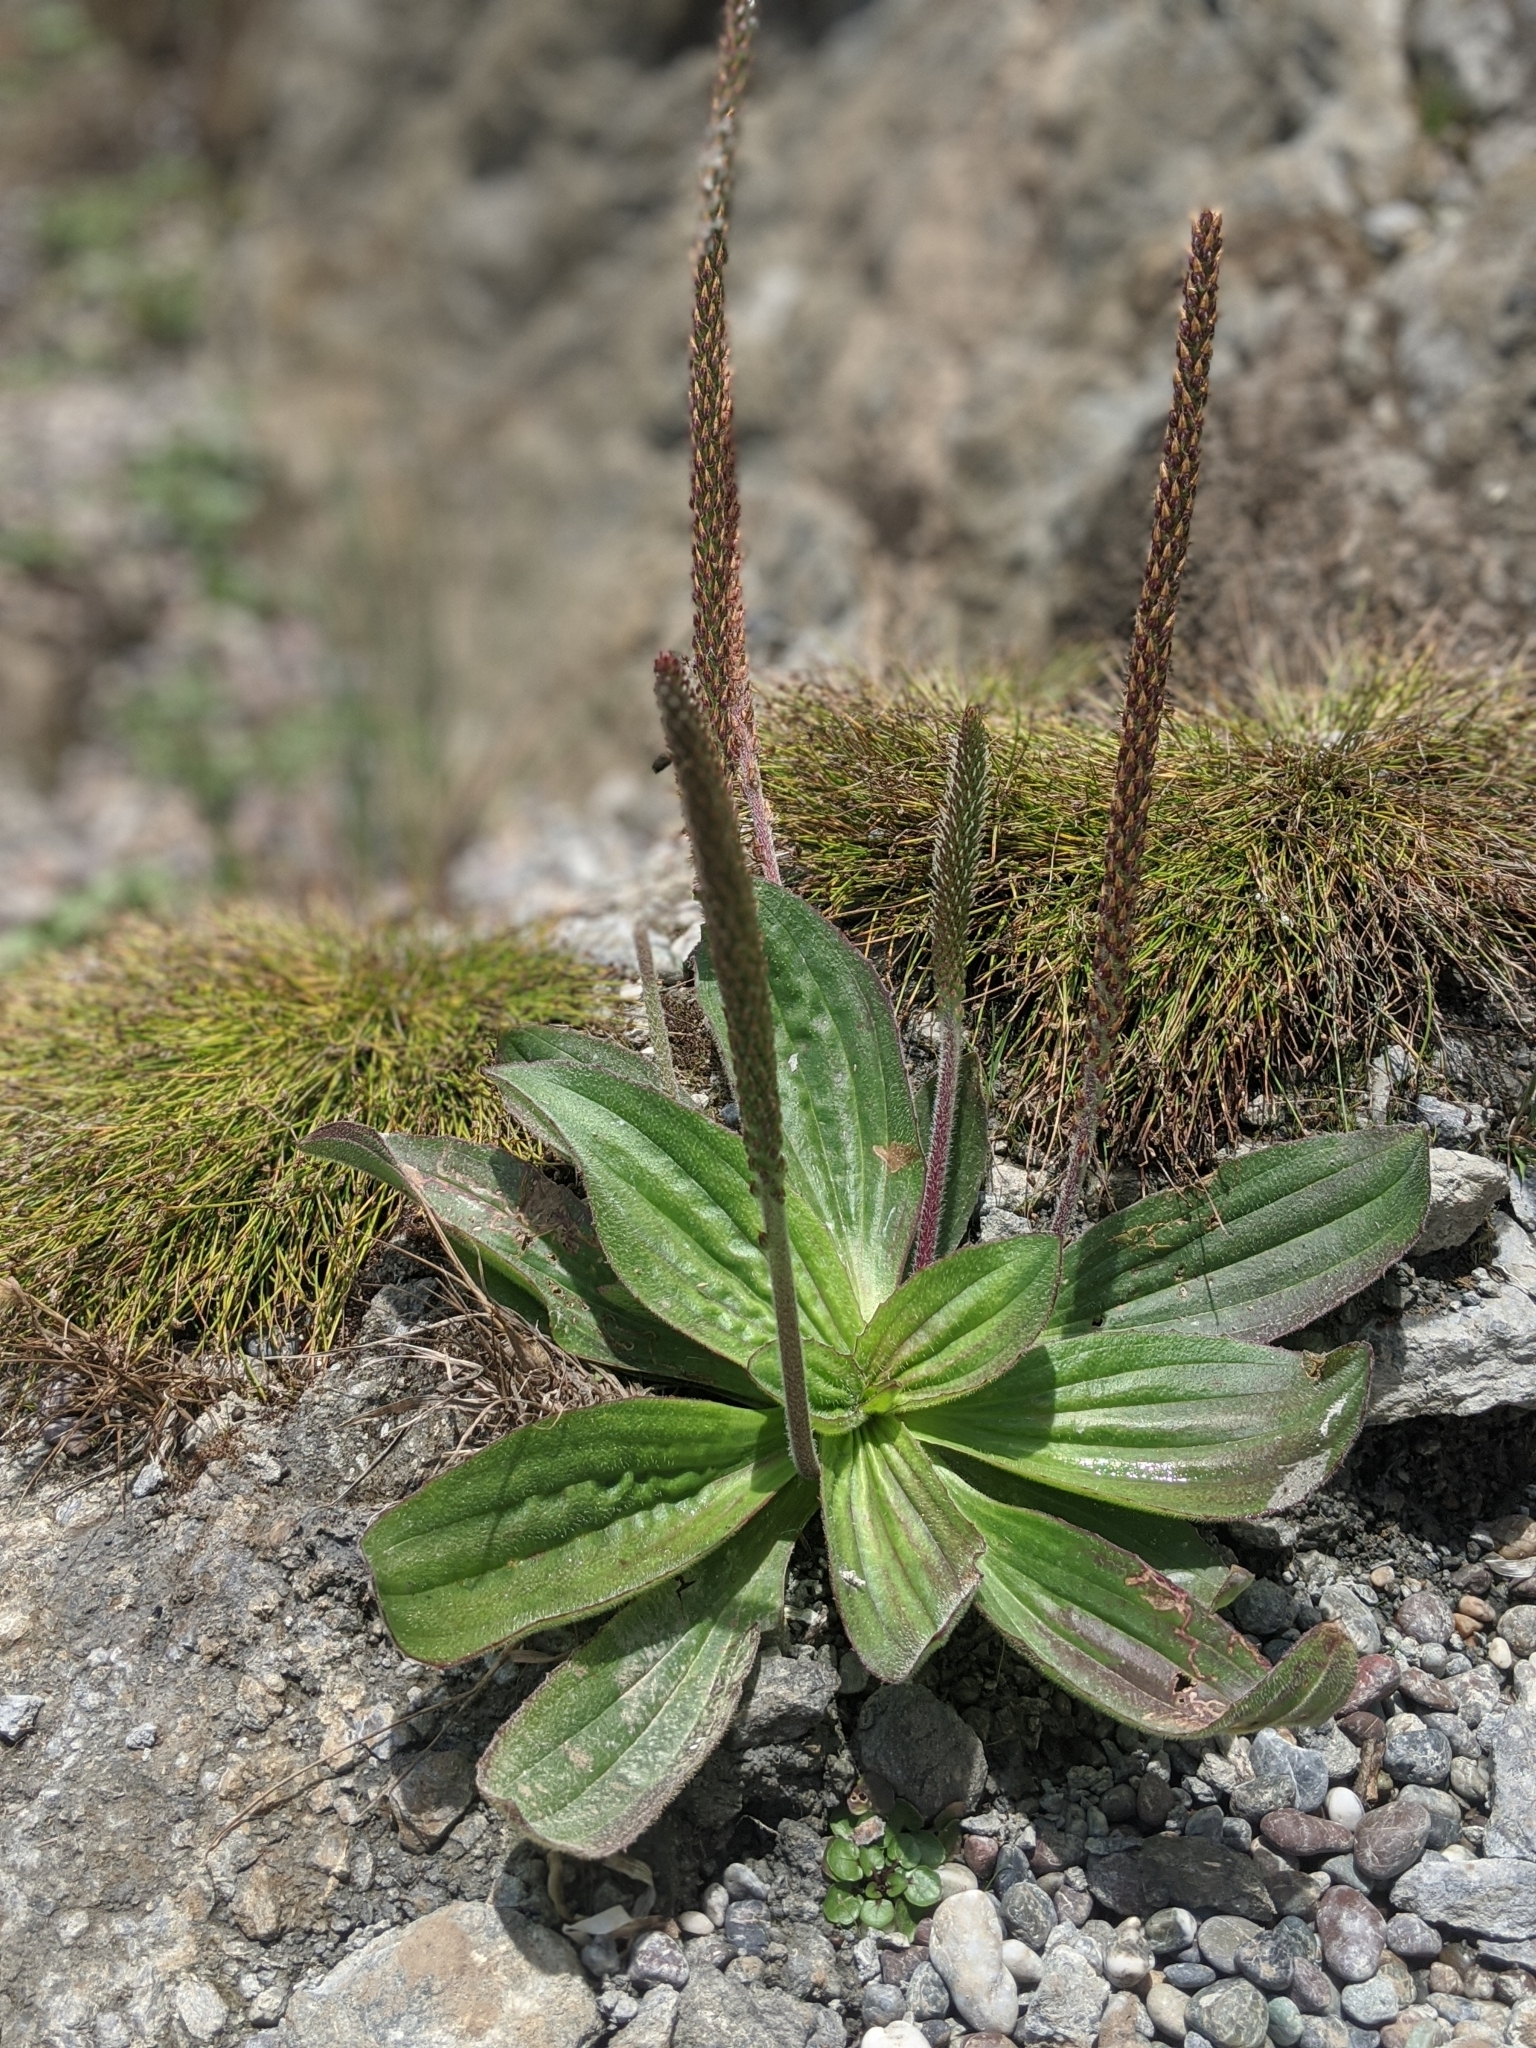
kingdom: Plantae
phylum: Tracheophyta
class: Magnoliopsida
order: Lamiales
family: Plantaginaceae
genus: Plantago
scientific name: Plantago subnuda
